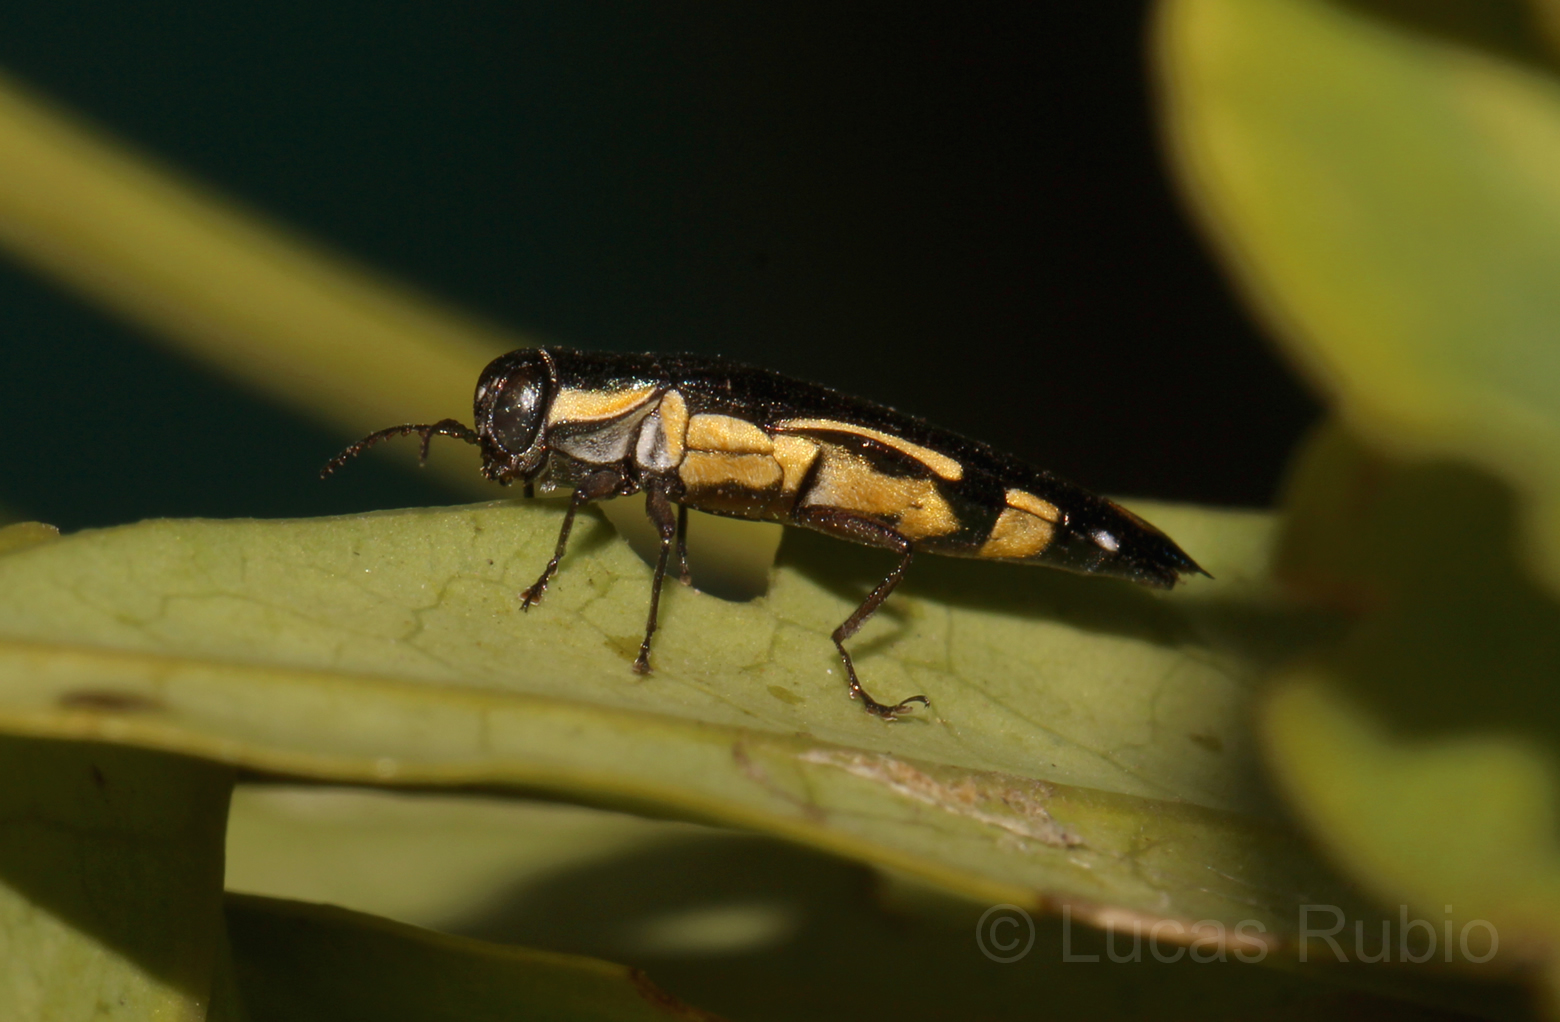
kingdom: Animalia
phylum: Arthropoda
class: Insecta
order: Coleoptera
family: Buprestidae
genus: Agrilus
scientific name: Agrilus chrysostictus
